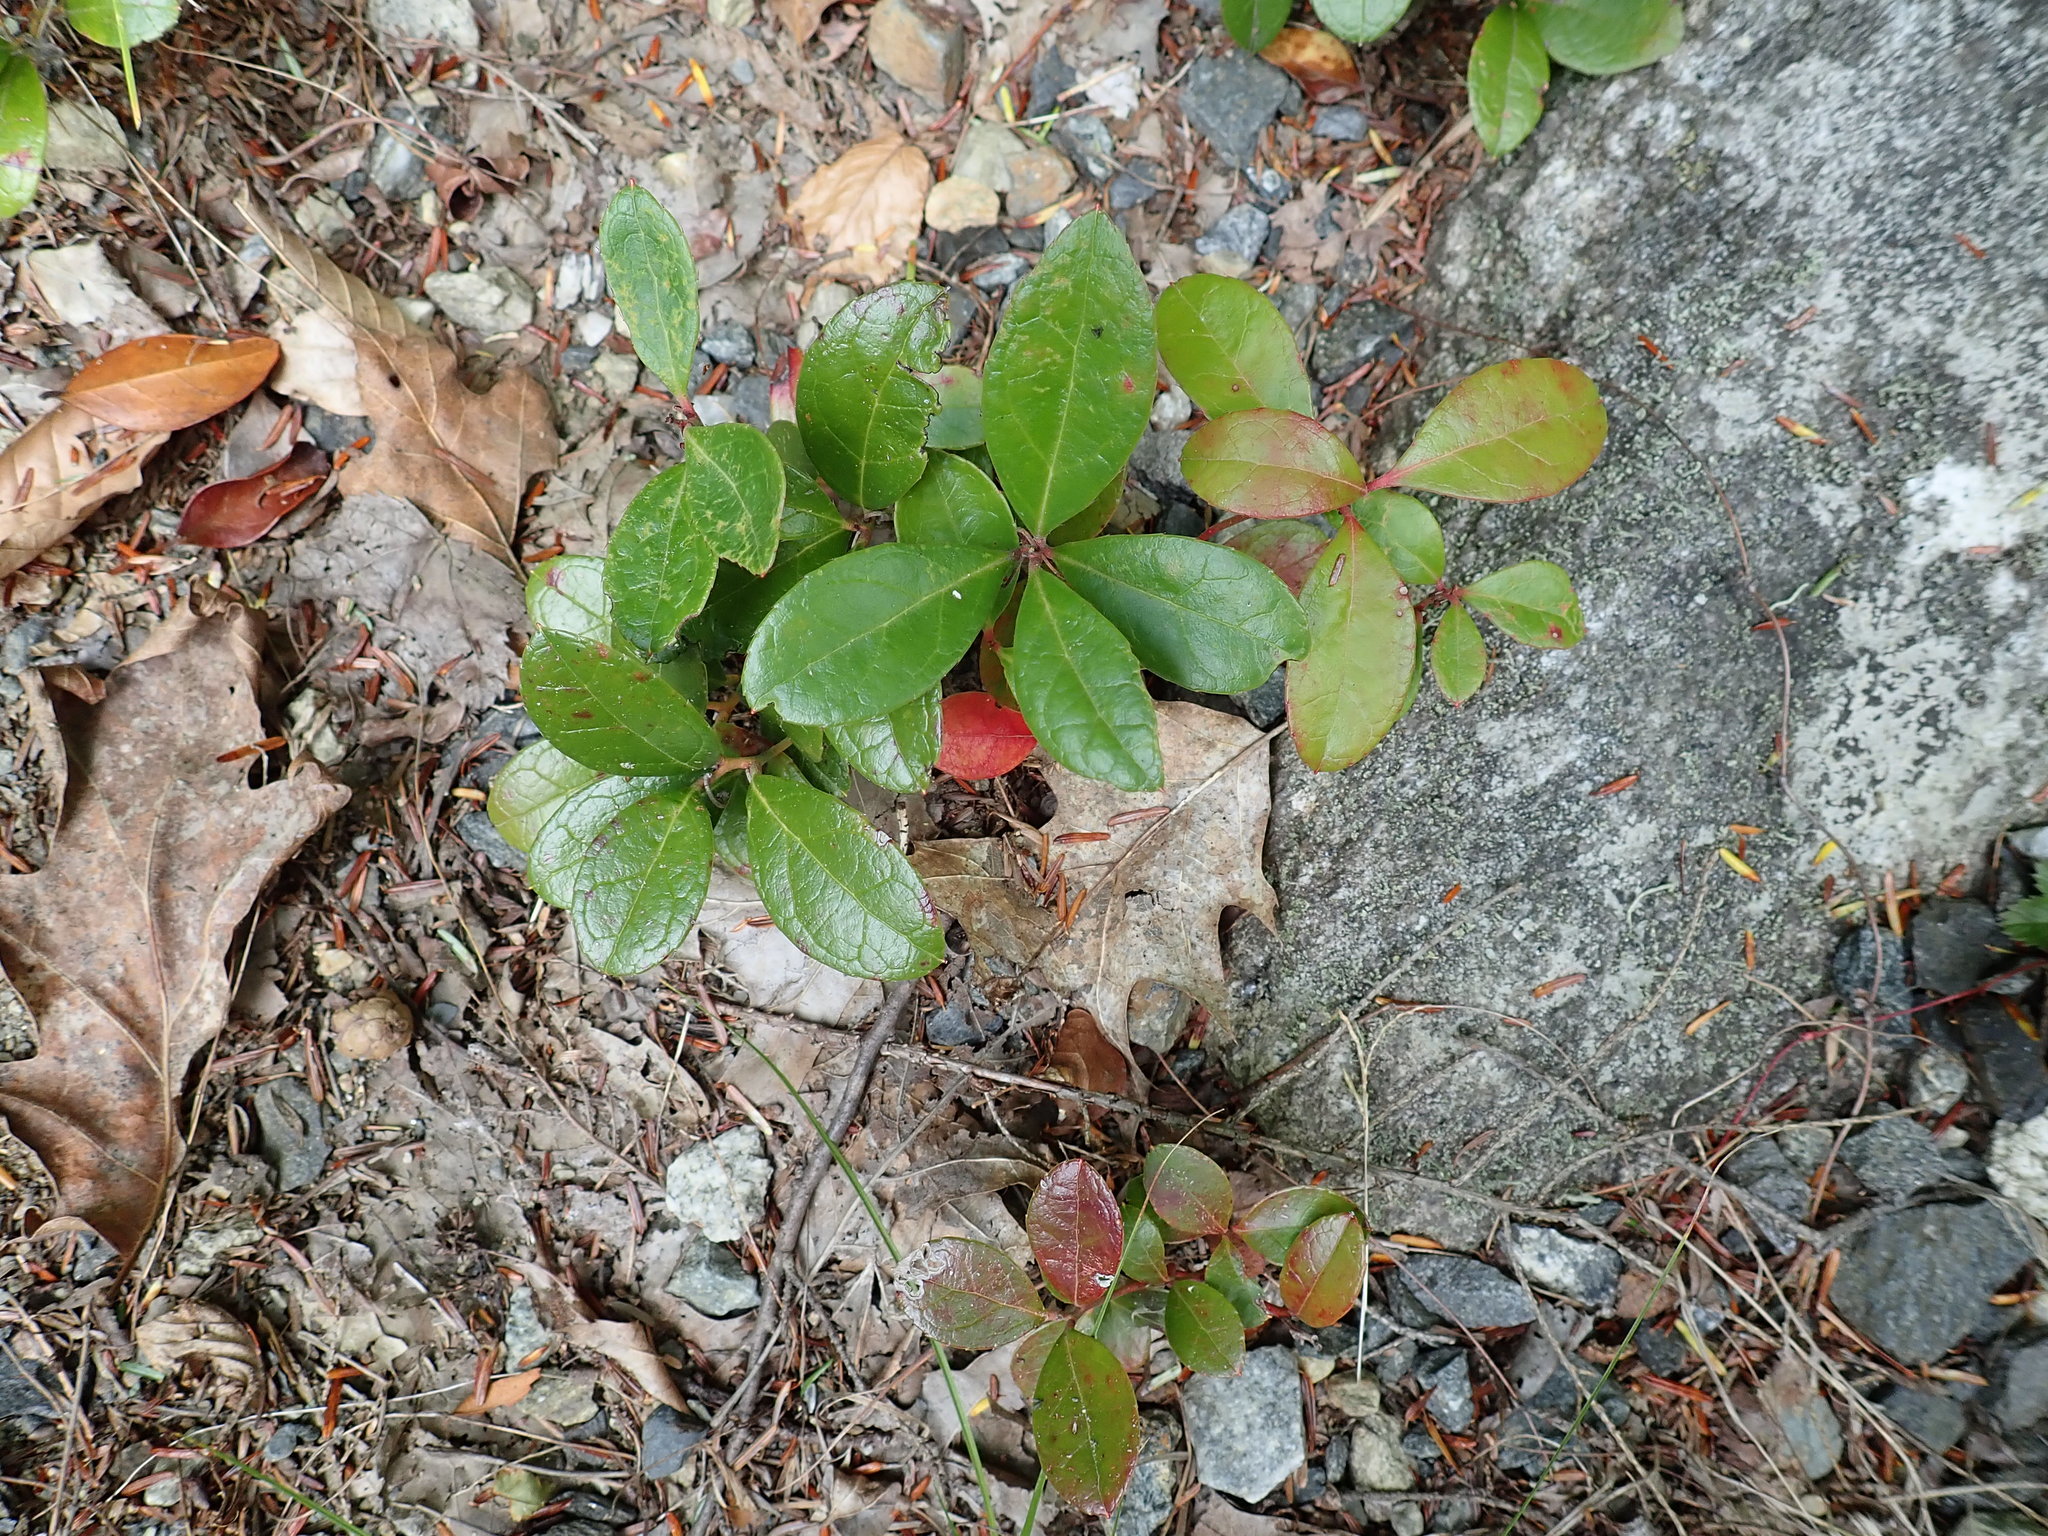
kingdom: Plantae
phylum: Tracheophyta
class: Magnoliopsida
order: Ericales
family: Ericaceae
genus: Gaultheria
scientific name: Gaultheria procumbens
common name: Checkerberry
